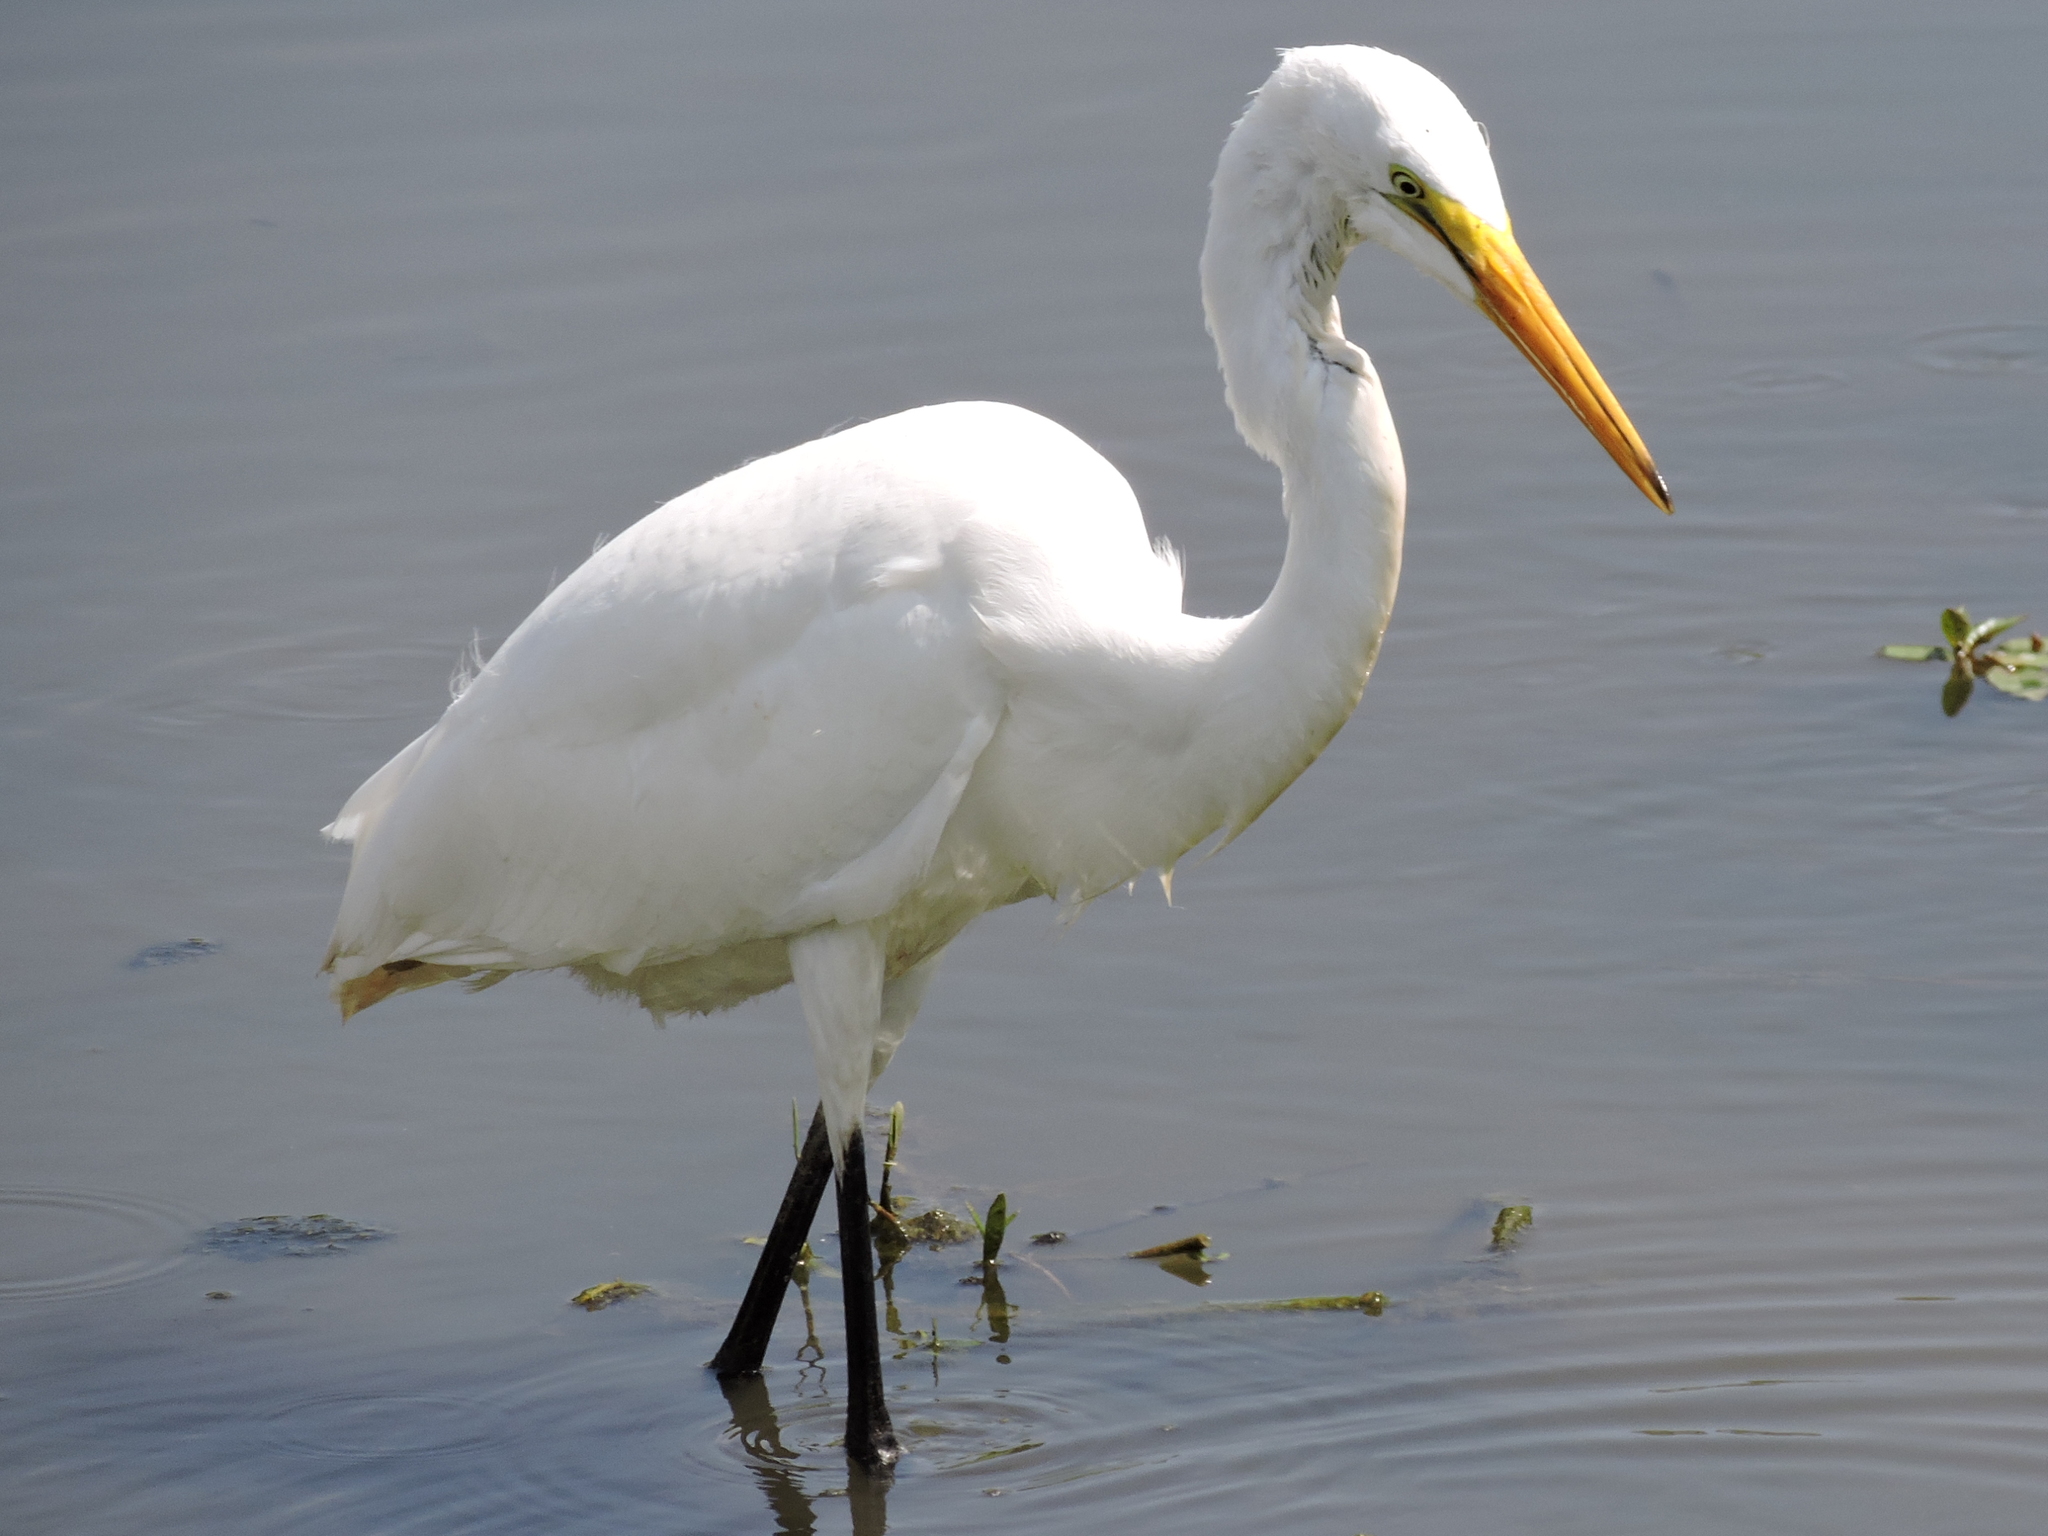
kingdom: Animalia
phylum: Chordata
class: Aves
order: Pelecaniformes
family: Ardeidae
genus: Ardea
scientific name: Ardea alba
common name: Great egret
